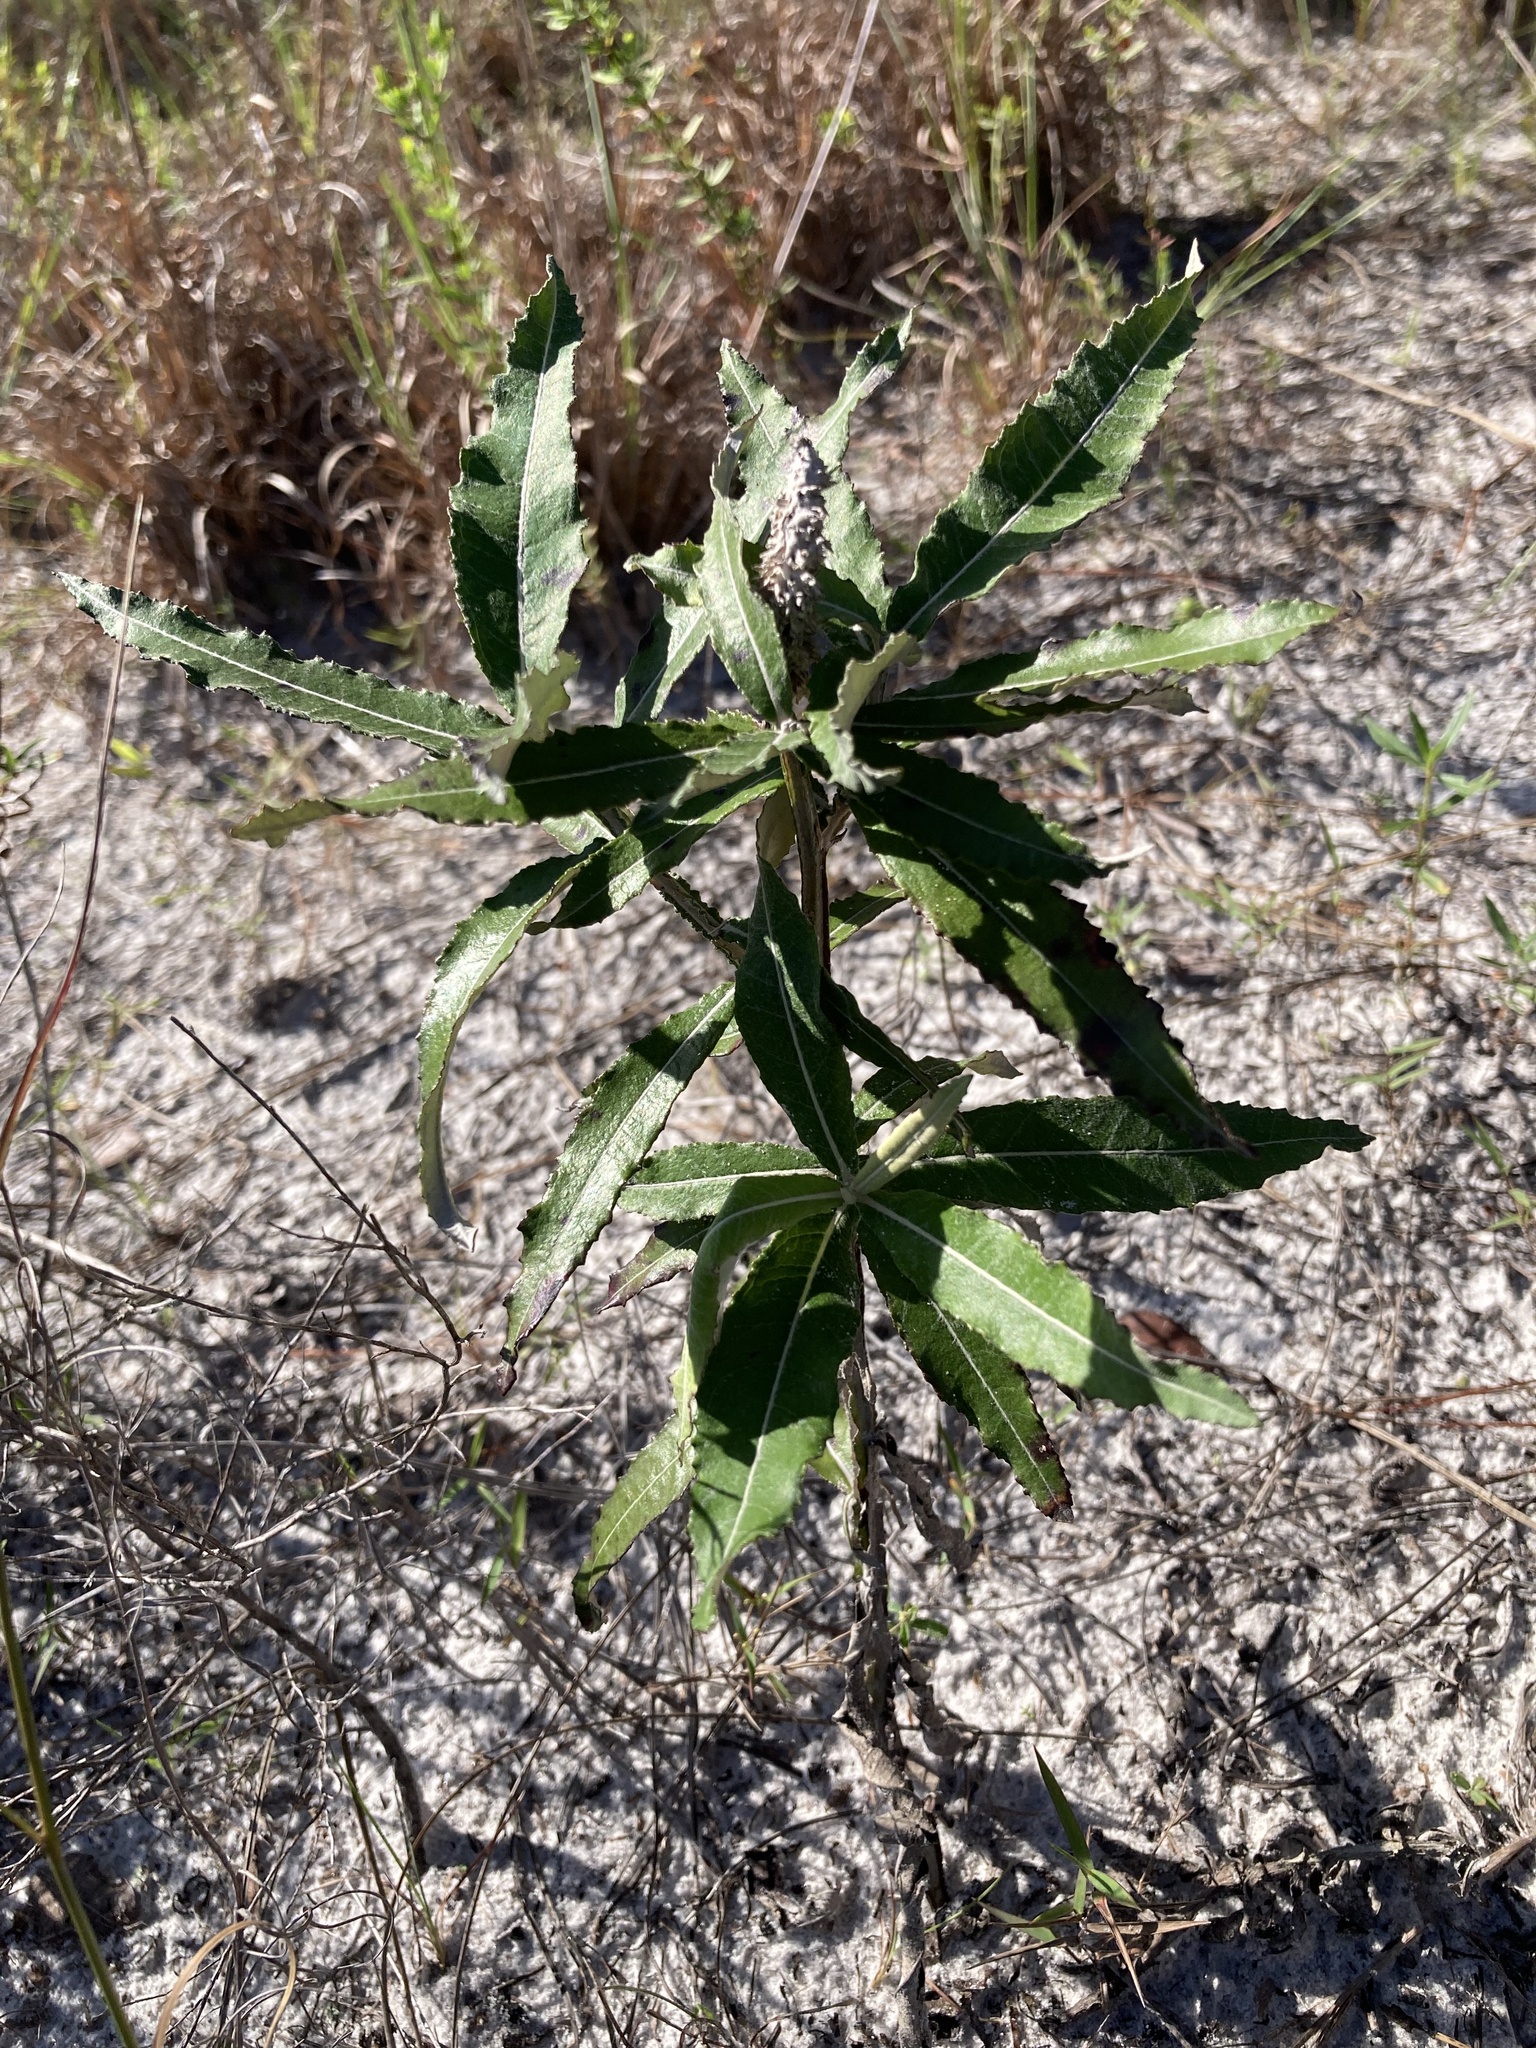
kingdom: Plantae
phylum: Tracheophyta
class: Magnoliopsida
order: Asterales
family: Asteraceae
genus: Pterocaulon
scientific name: Pterocaulon pycnostachyum
